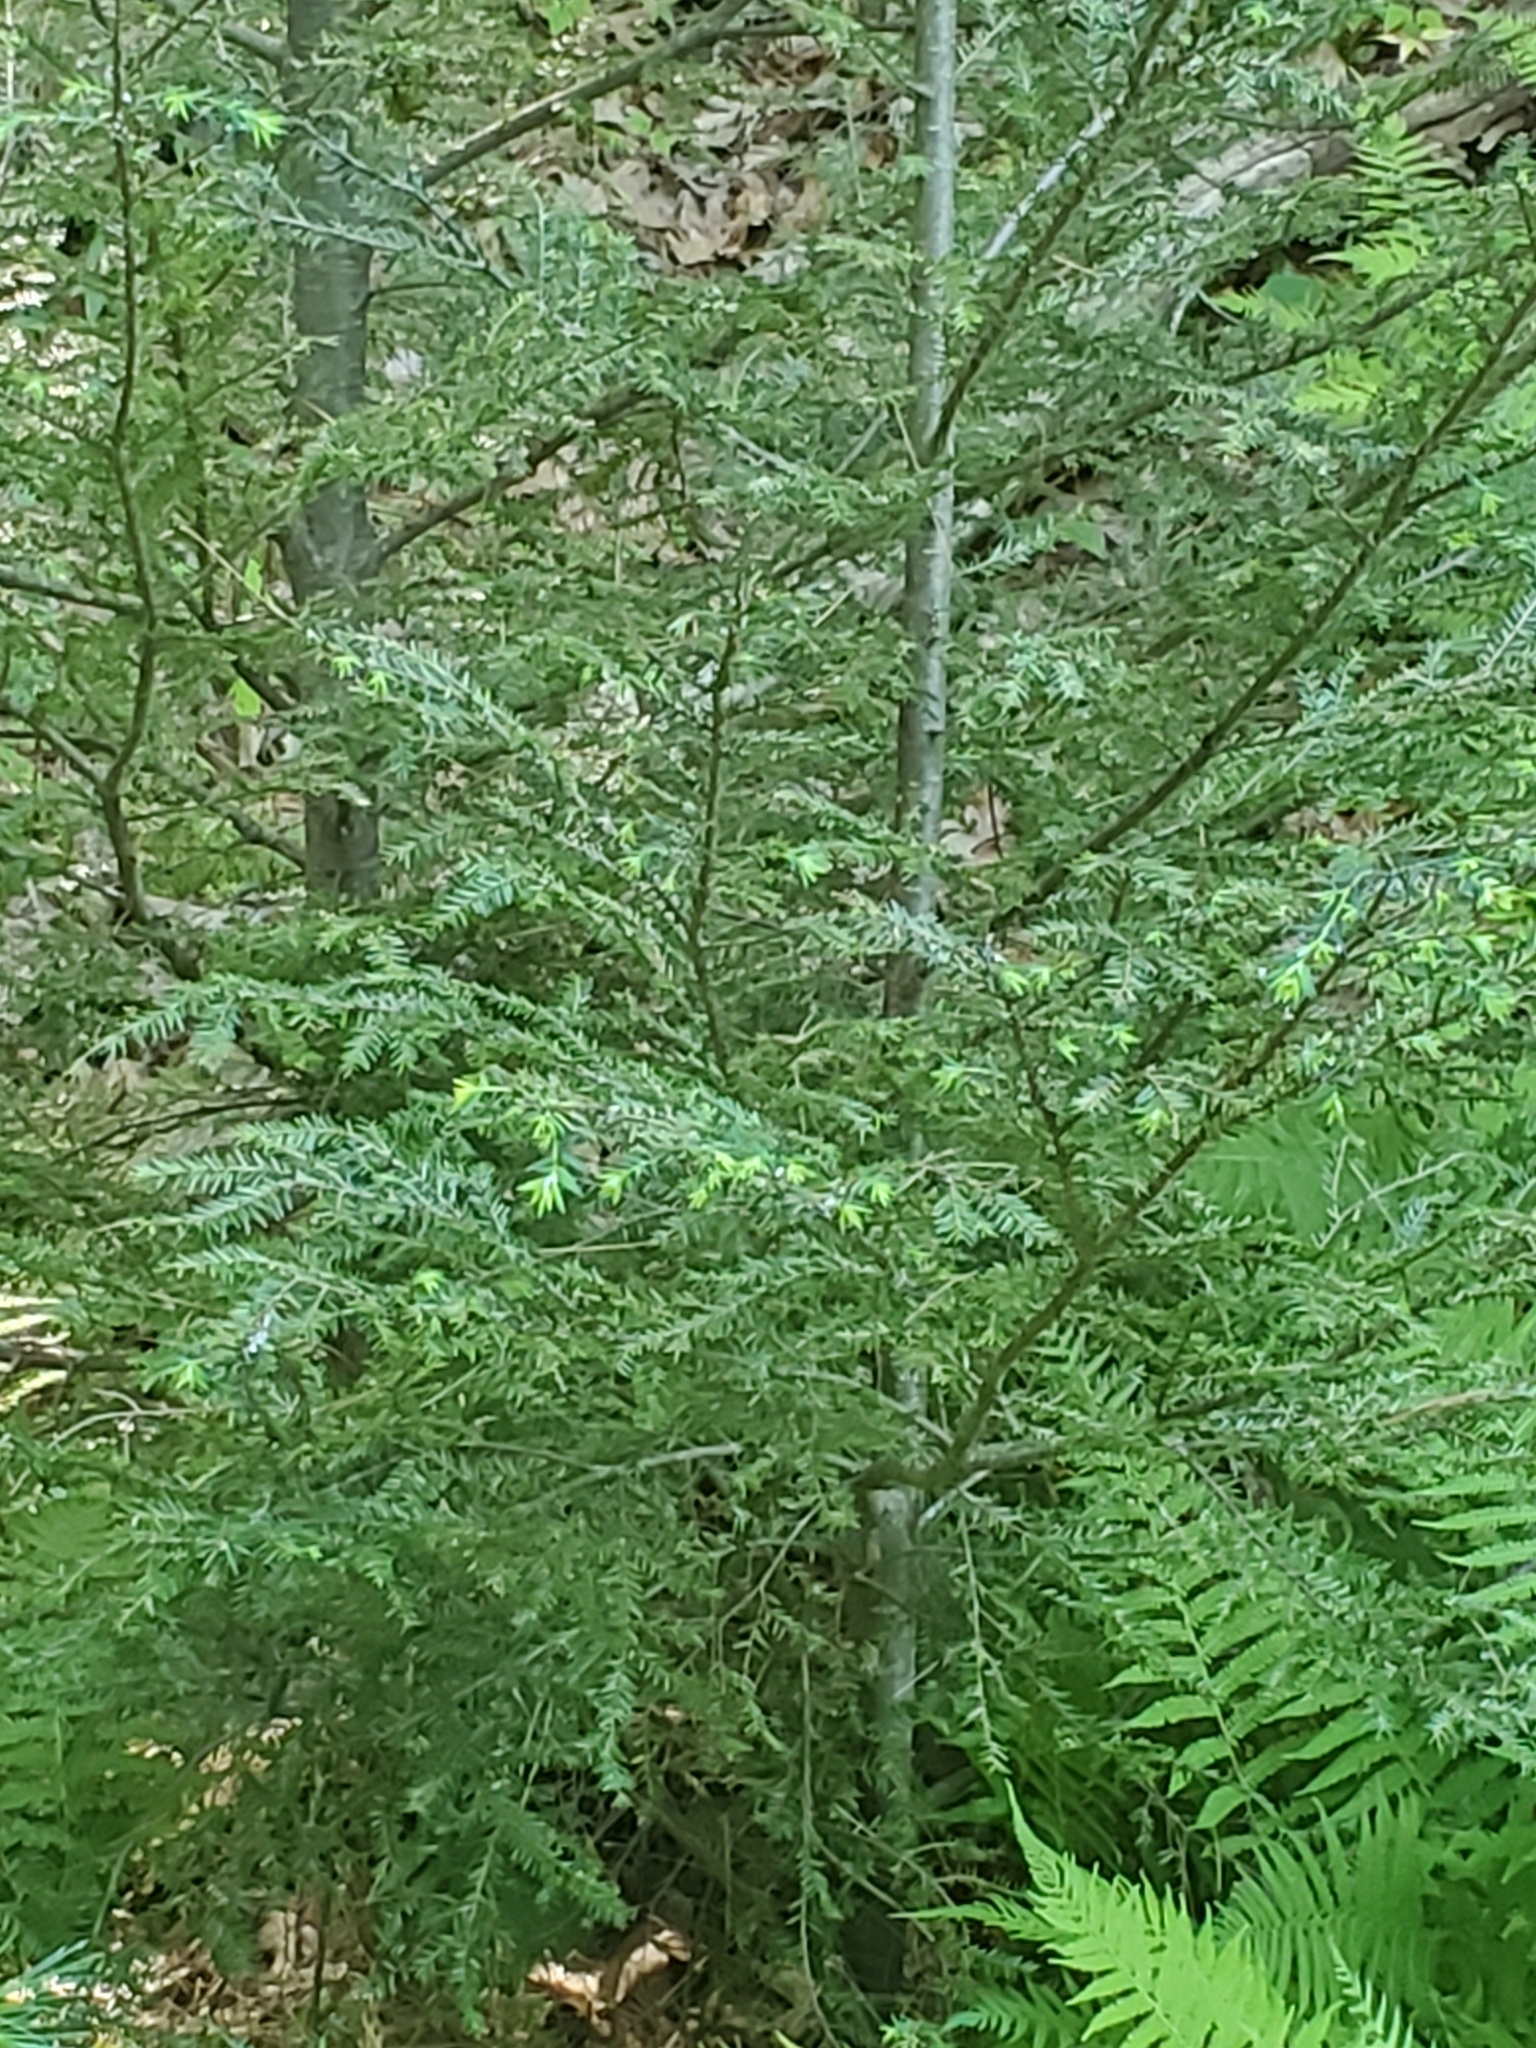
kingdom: Plantae
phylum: Tracheophyta
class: Pinopsida
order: Pinales
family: Pinaceae
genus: Tsuga
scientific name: Tsuga canadensis
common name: Eastern hemlock
